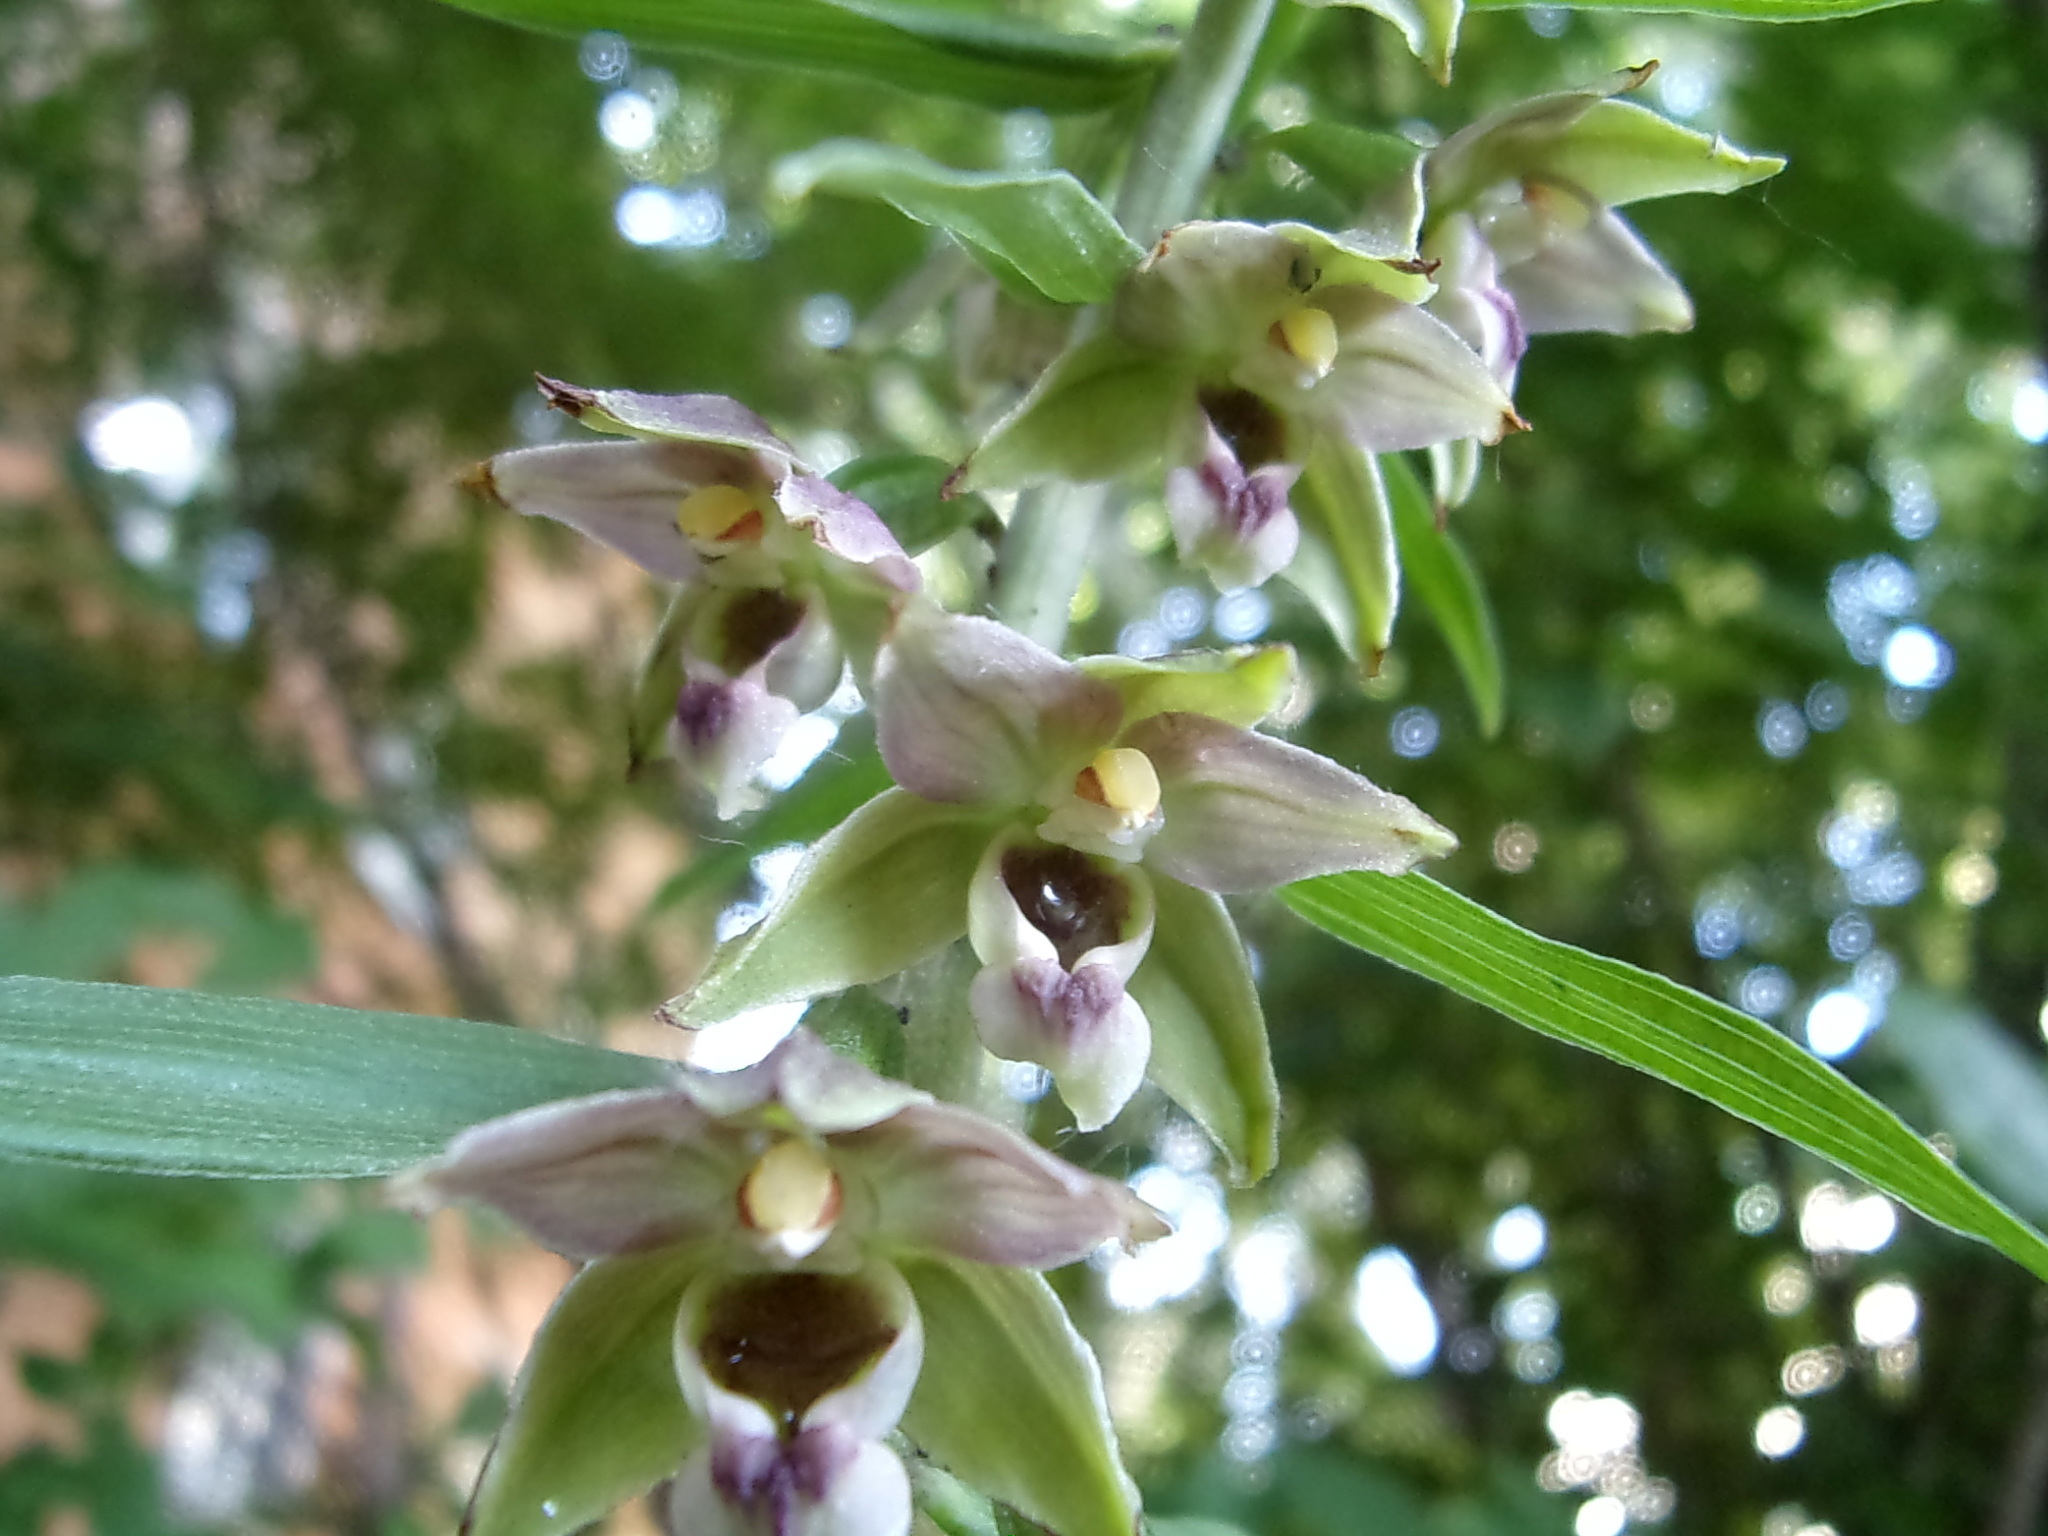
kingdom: Plantae
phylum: Tracheophyta
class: Liliopsida
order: Asparagales
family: Orchidaceae
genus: Epipactis
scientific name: Epipactis helleborine
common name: Broad-leaved helleborine
